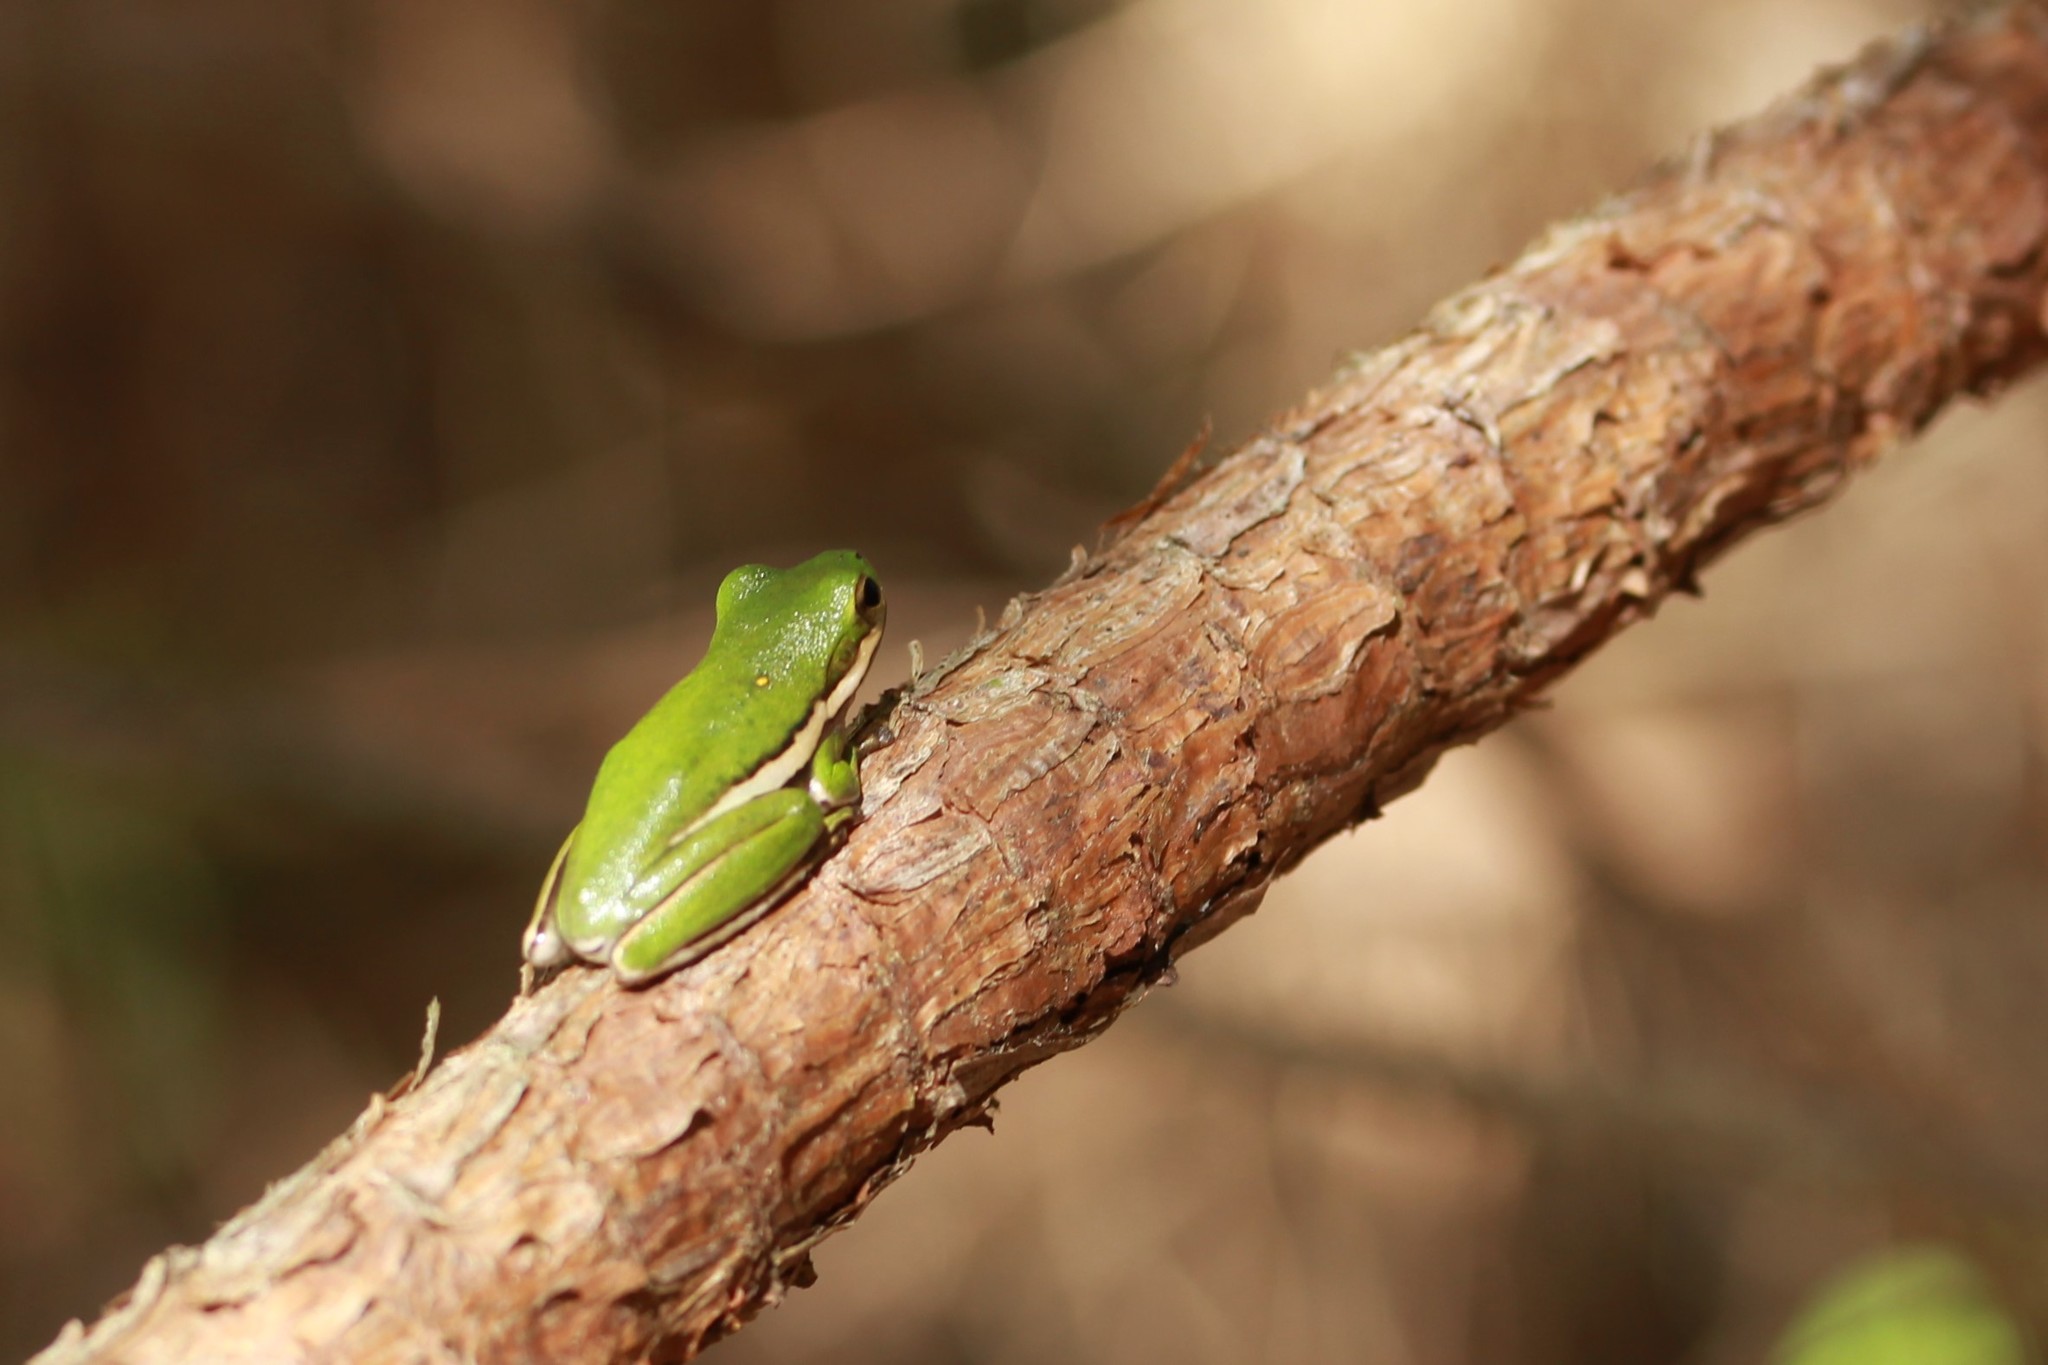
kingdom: Animalia
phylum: Chordata
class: Amphibia
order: Anura
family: Hylidae
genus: Dryophytes
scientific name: Dryophytes cinereus
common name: Green treefrog
